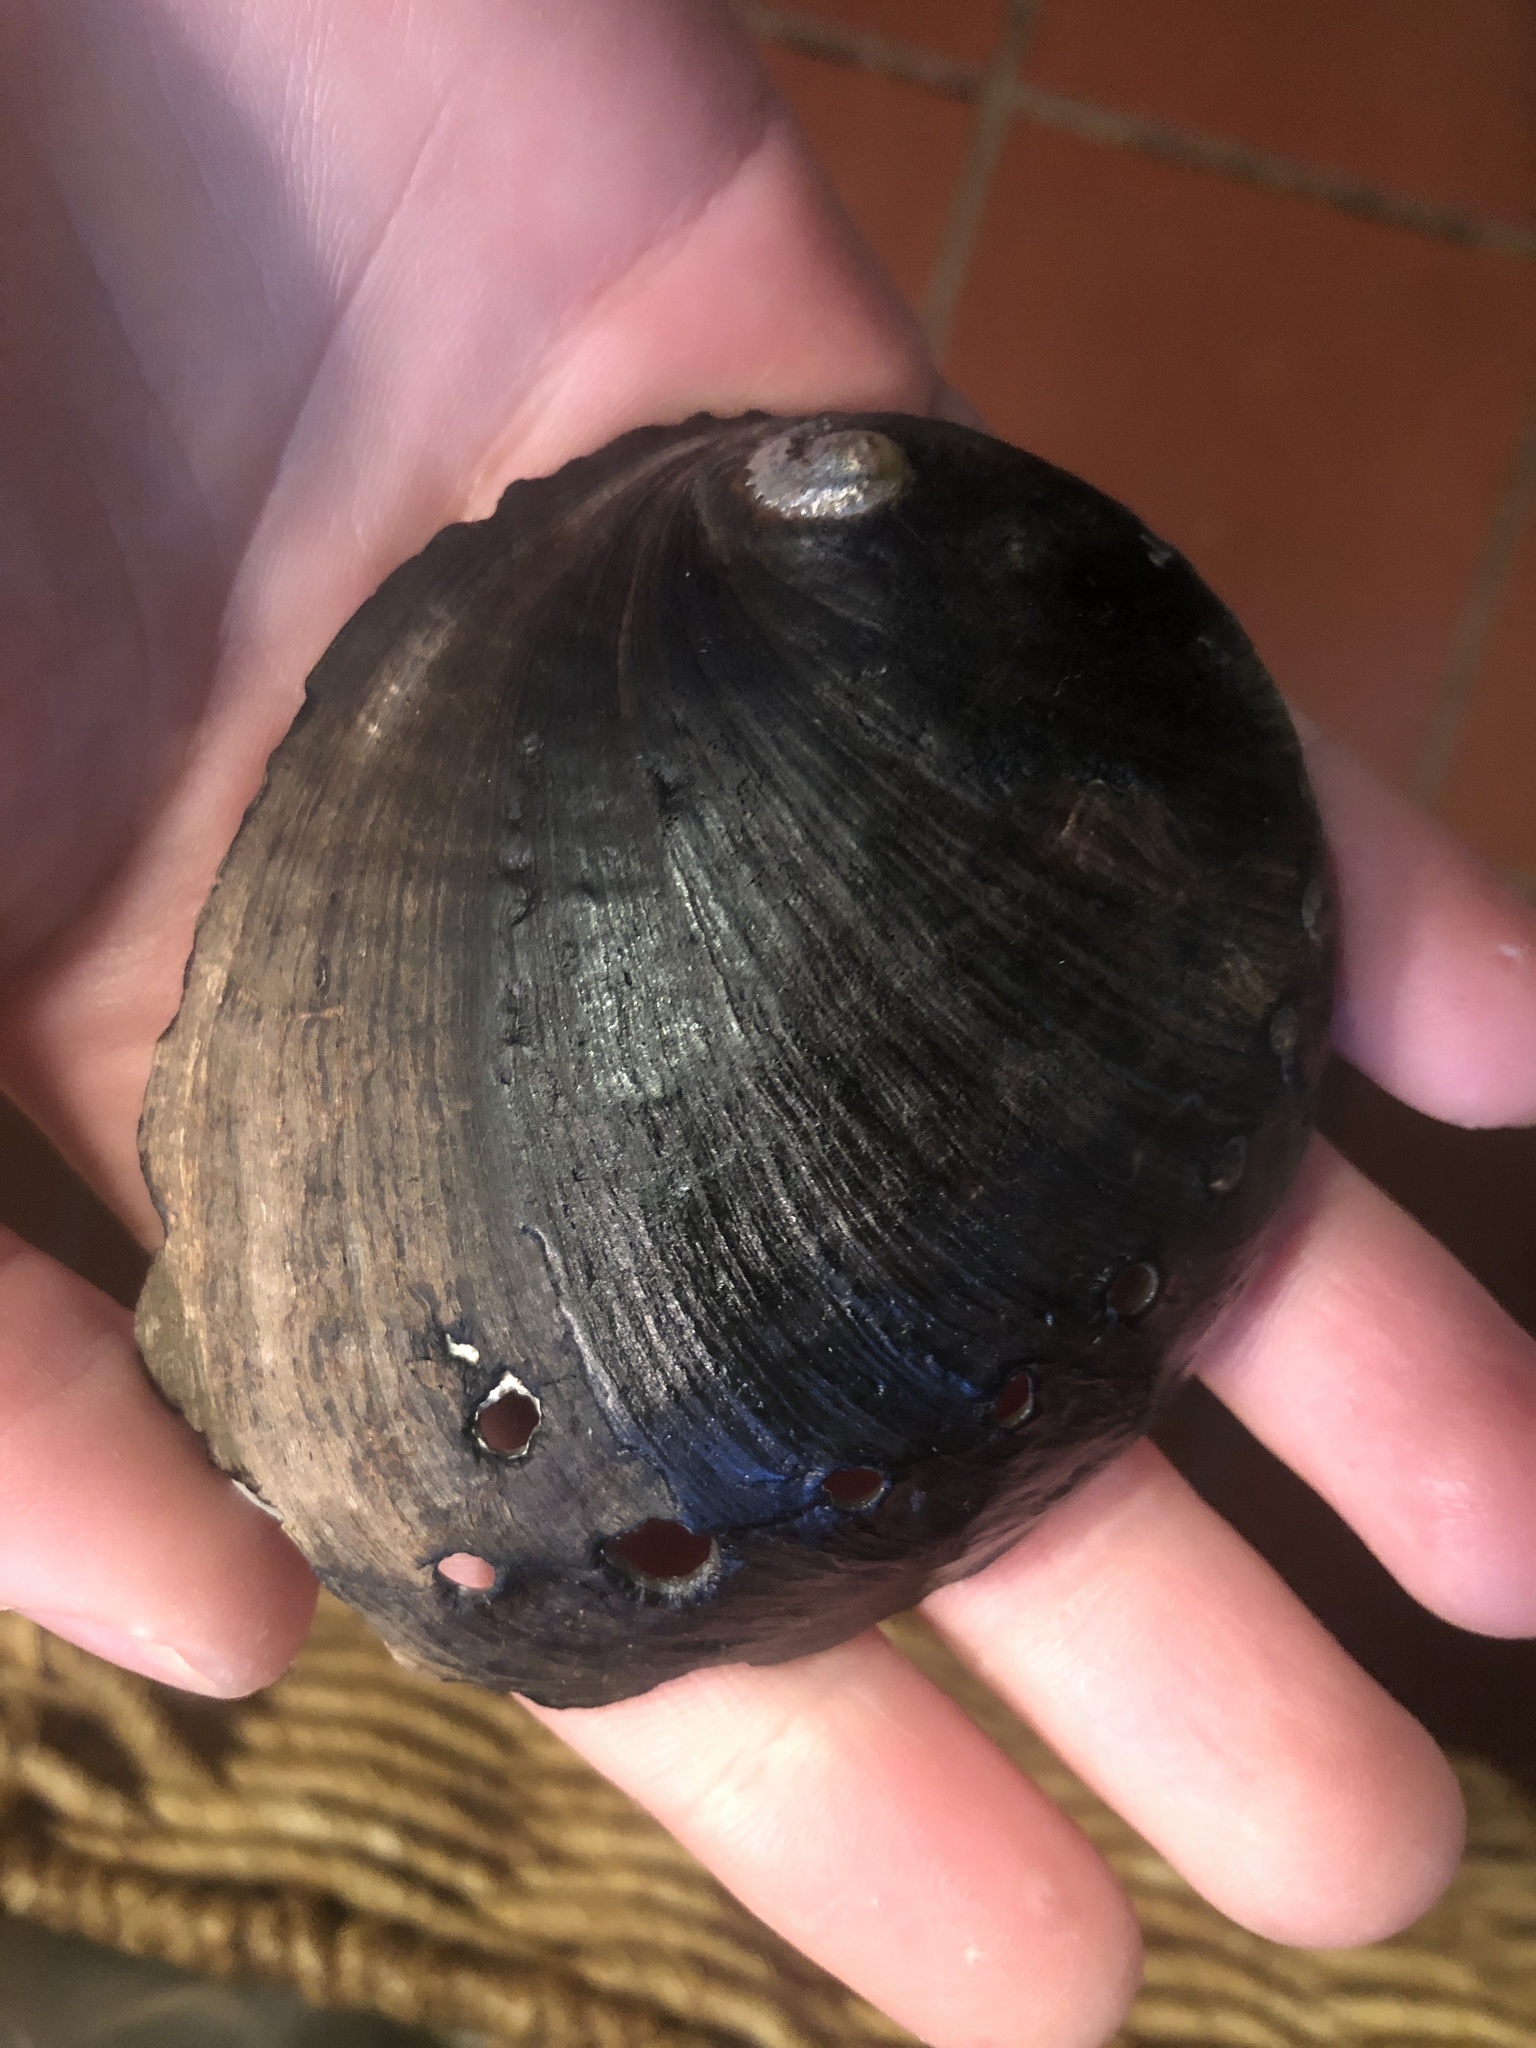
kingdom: Animalia
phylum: Mollusca
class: Gastropoda
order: Lepetellida
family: Haliotidae
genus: Haliotis
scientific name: Haliotis cracherodii
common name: Black abalone
